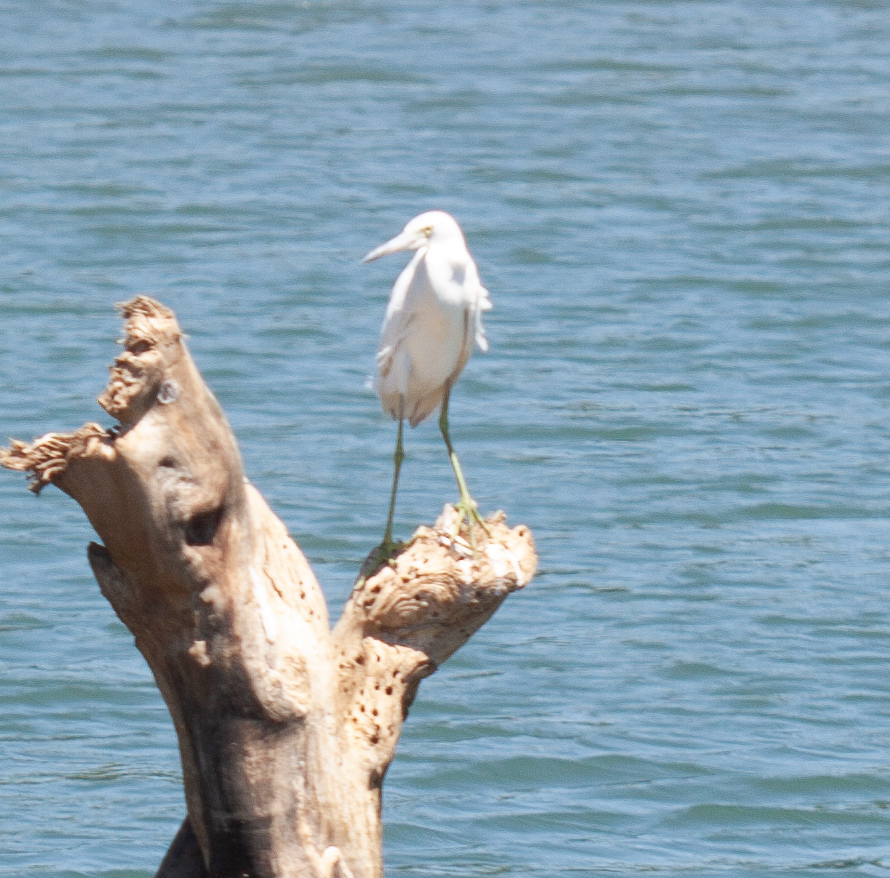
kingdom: Animalia
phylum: Chordata
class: Aves
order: Pelecaniformes
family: Ardeidae
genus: Egretta
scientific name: Egretta caerulea
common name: Little blue heron
